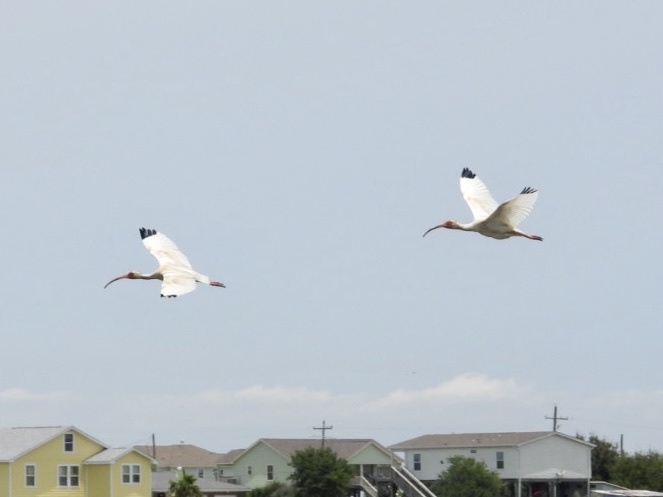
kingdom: Animalia
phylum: Chordata
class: Aves
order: Pelecaniformes
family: Threskiornithidae
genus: Eudocimus
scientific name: Eudocimus albus
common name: White ibis
